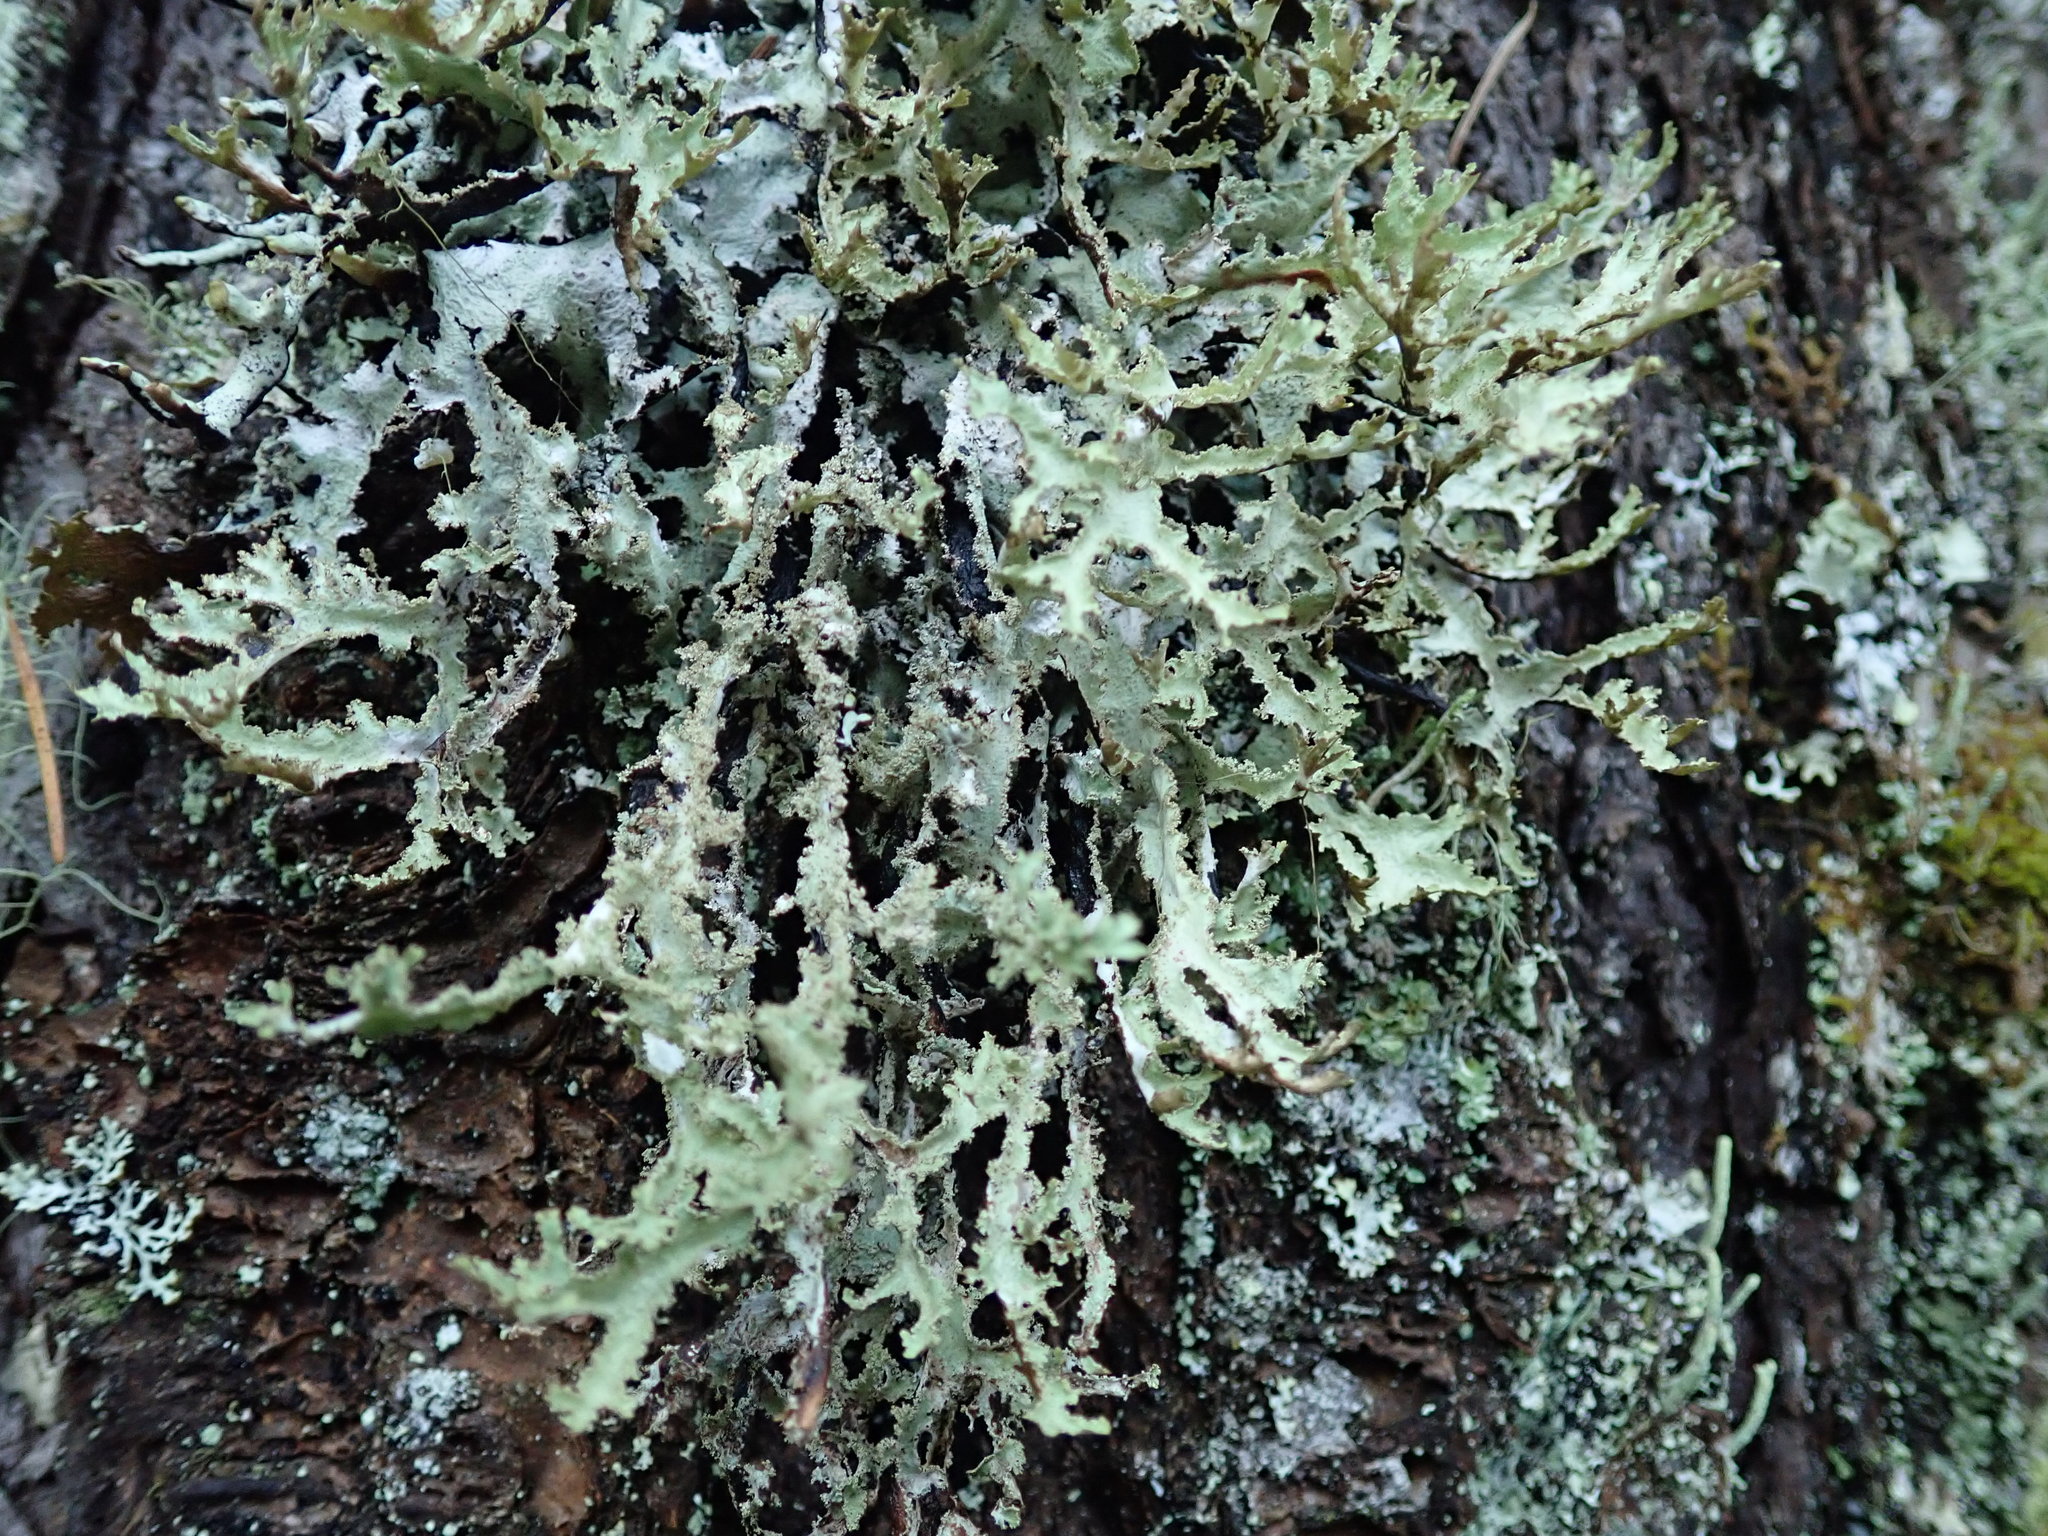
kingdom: Fungi
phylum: Ascomycota
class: Lecanoromycetes
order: Lecanorales
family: Parmeliaceae
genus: Platismatia
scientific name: Platismatia herrei
